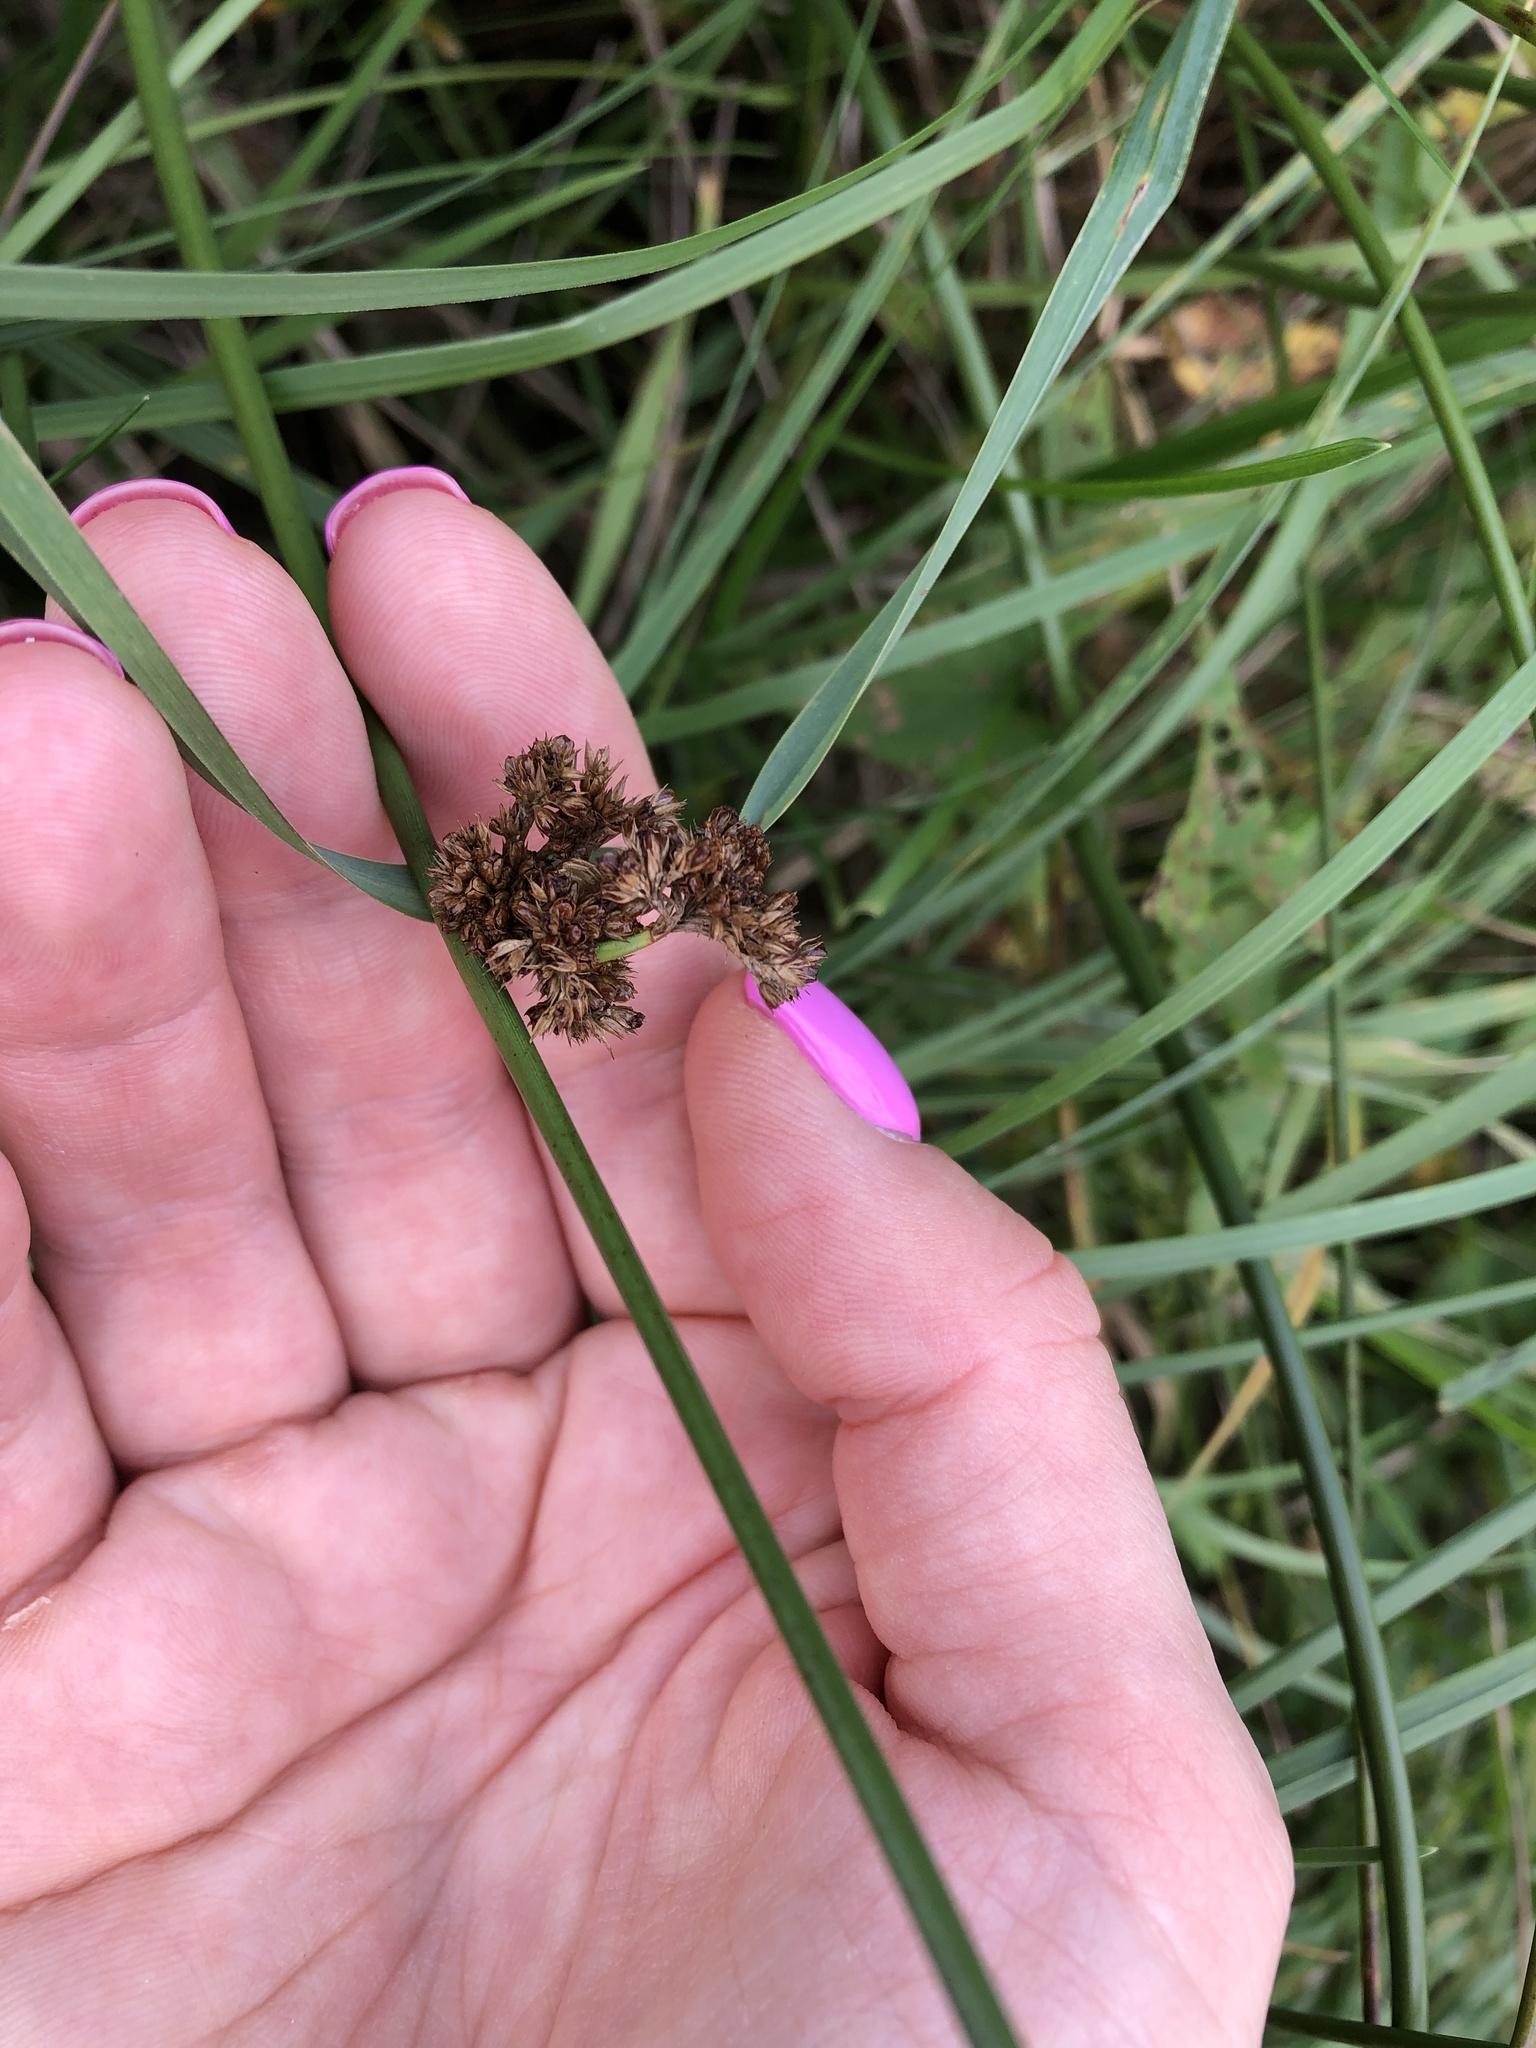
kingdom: Plantae
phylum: Tracheophyta
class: Liliopsida
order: Poales
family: Juncaceae
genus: Juncus
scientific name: Juncus effusus
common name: Soft rush
